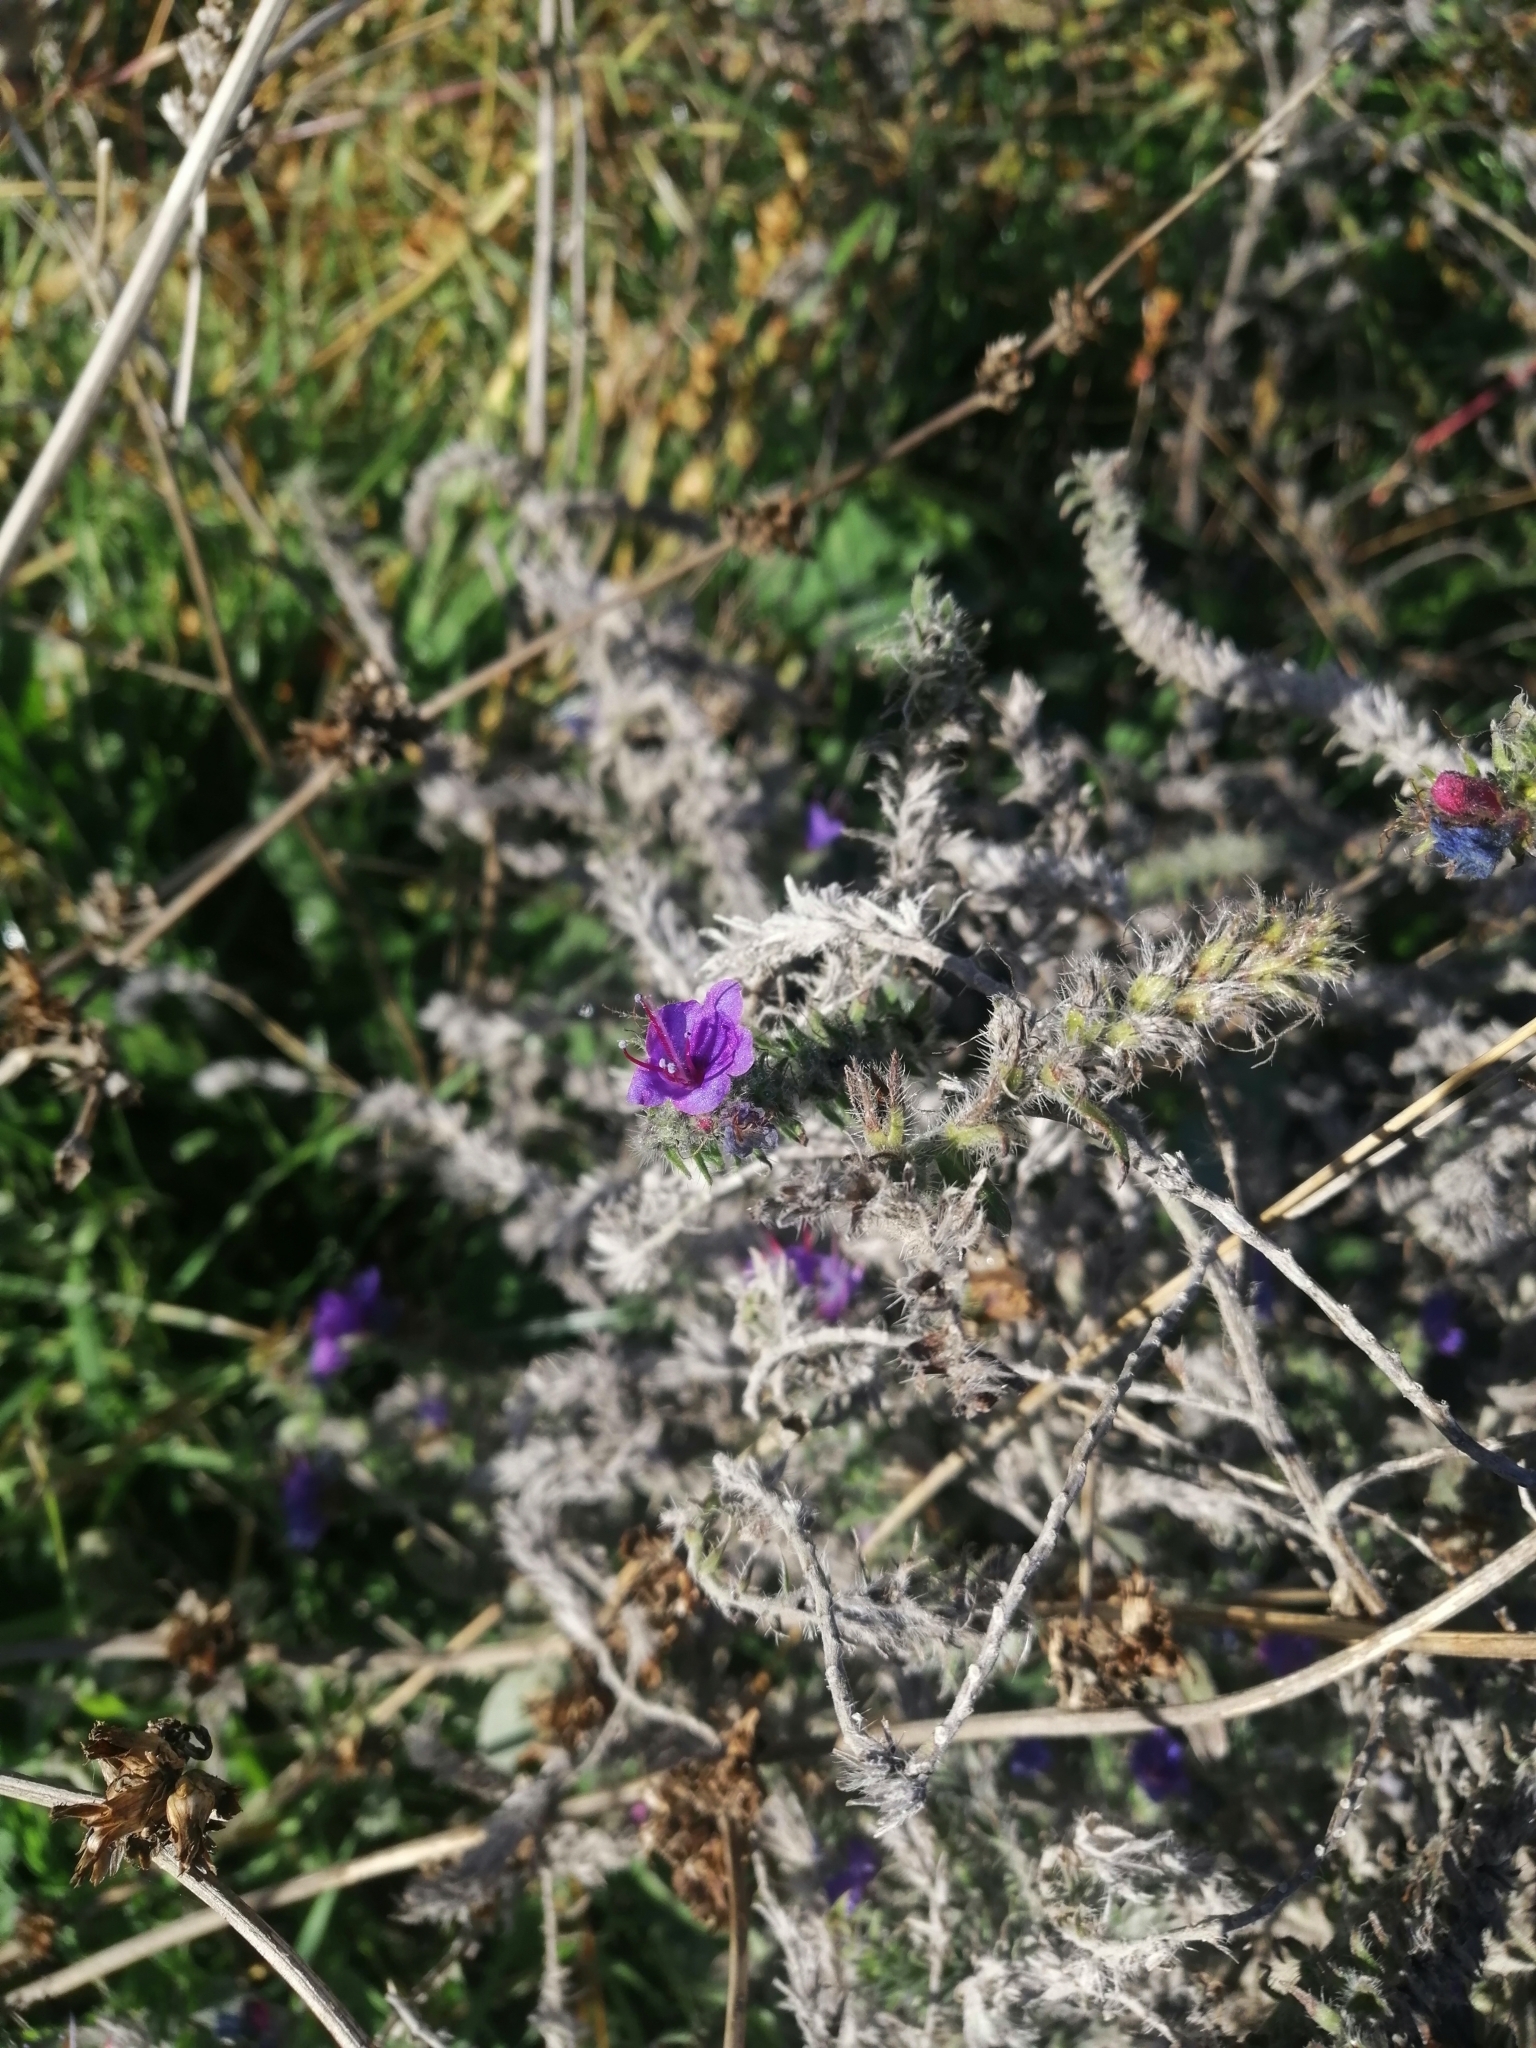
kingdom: Plantae
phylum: Tracheophyta
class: Magnoliopsida
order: Boraginales
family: Boraginaceae
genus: Echium
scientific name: Echium vulgare
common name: Common viper's bugloss
